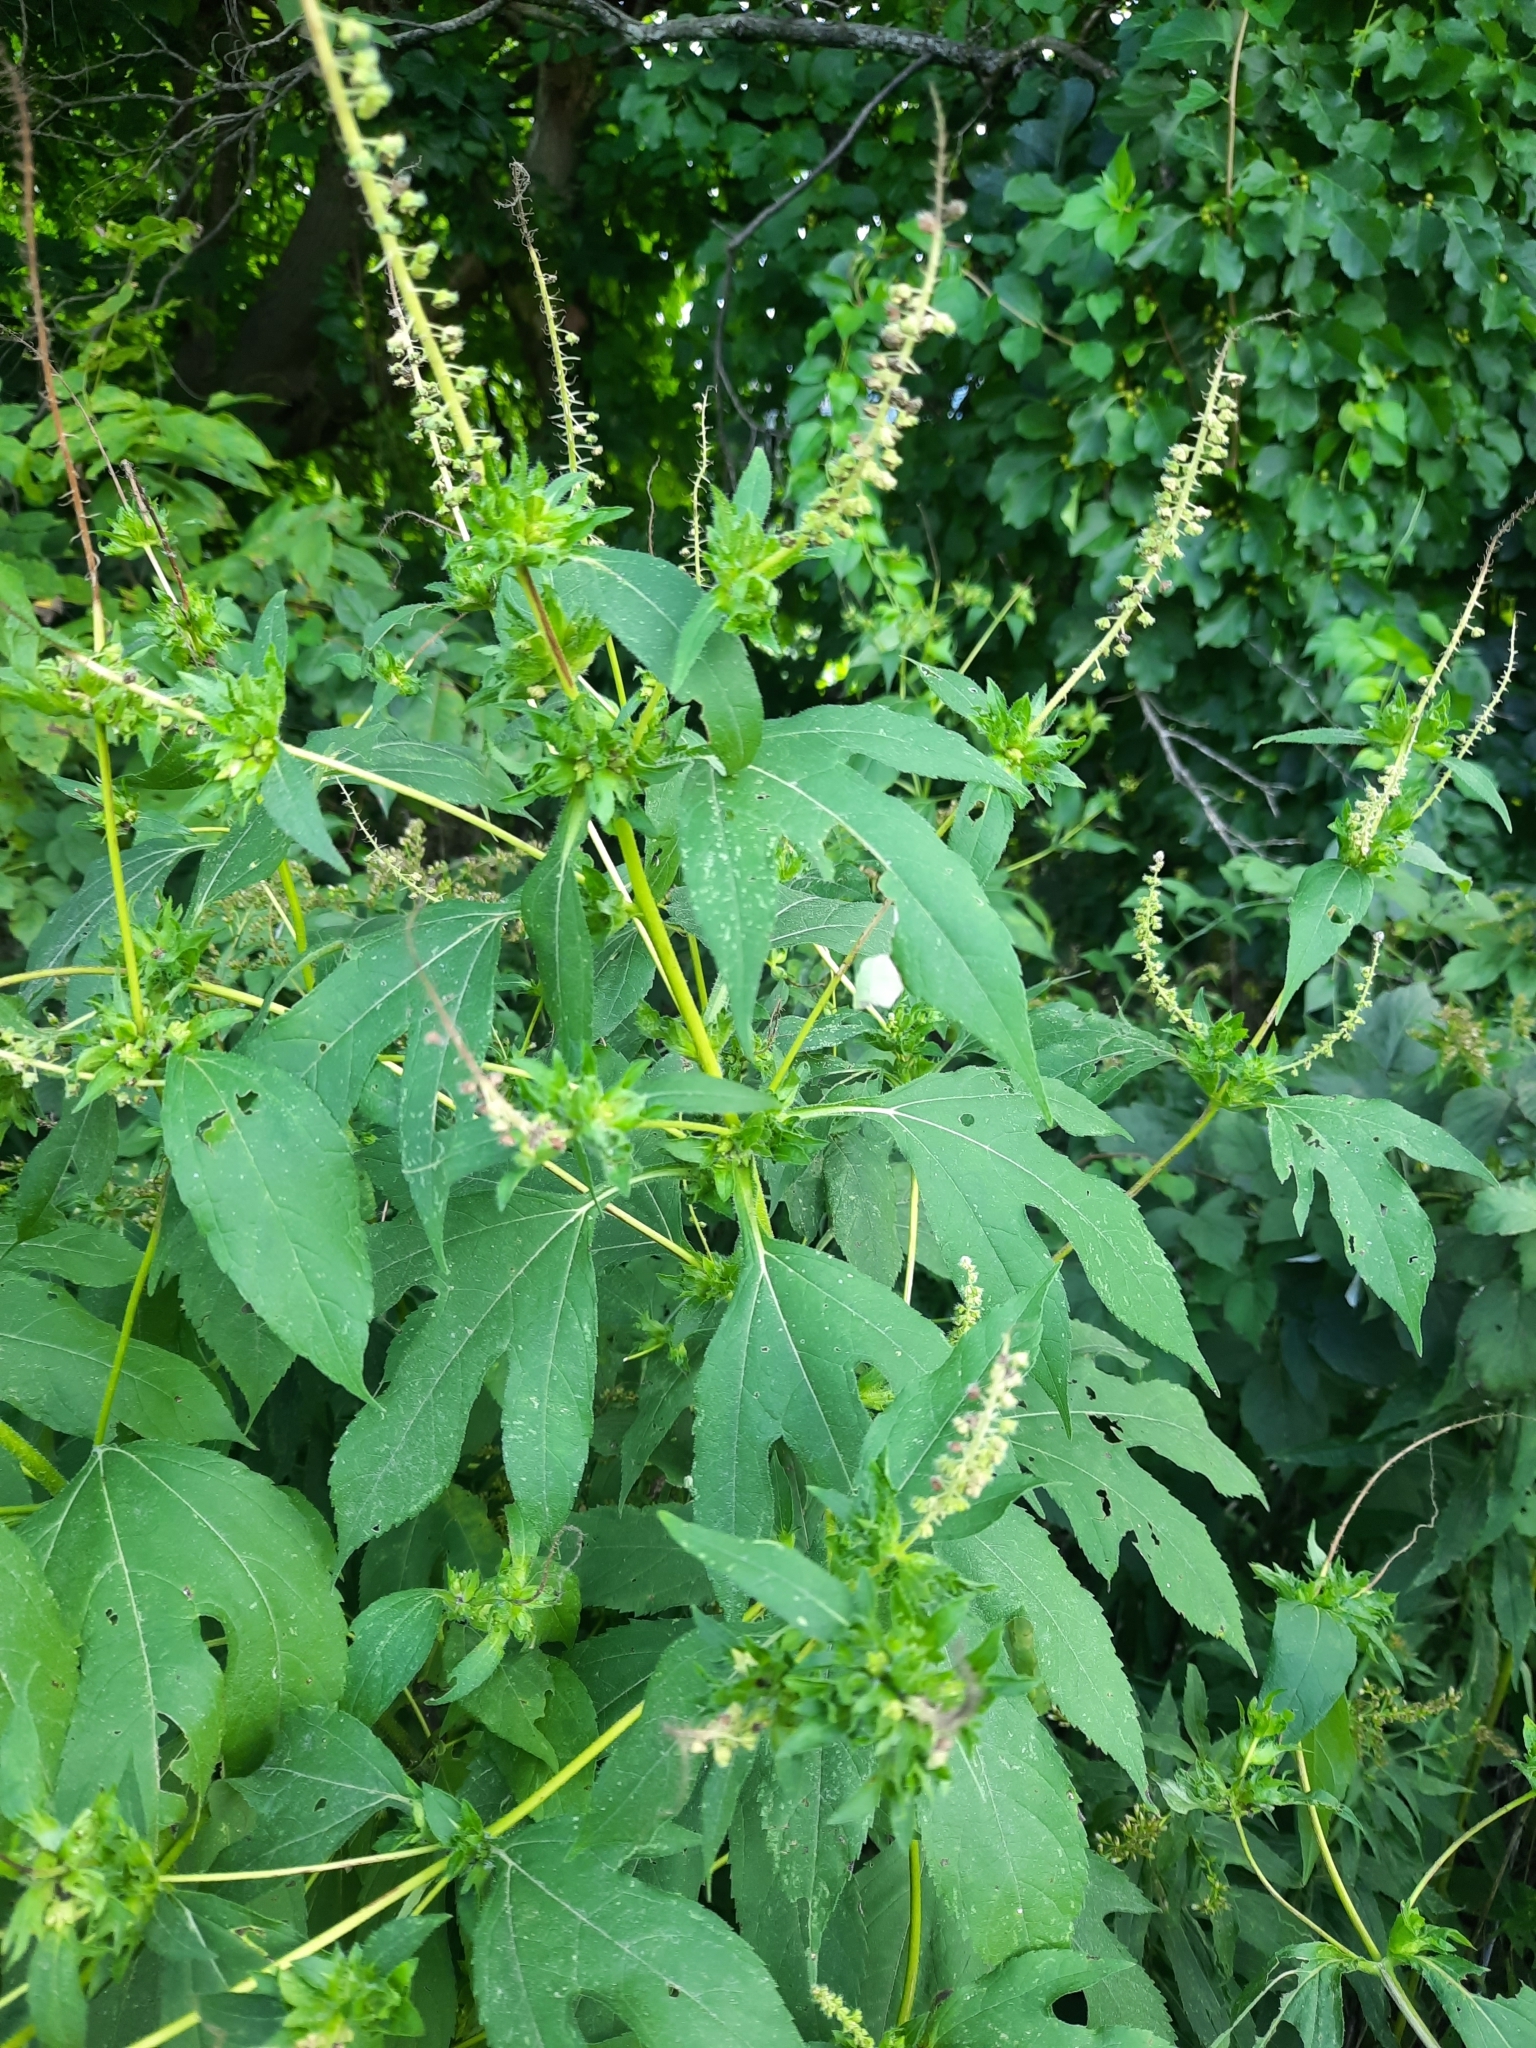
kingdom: Plantae
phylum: Tracheophyta
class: Magnoliopsida
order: Asterales
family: Asteraceae
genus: Ambrosia
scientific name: Ambrosia trifida
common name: Giant ragweed
